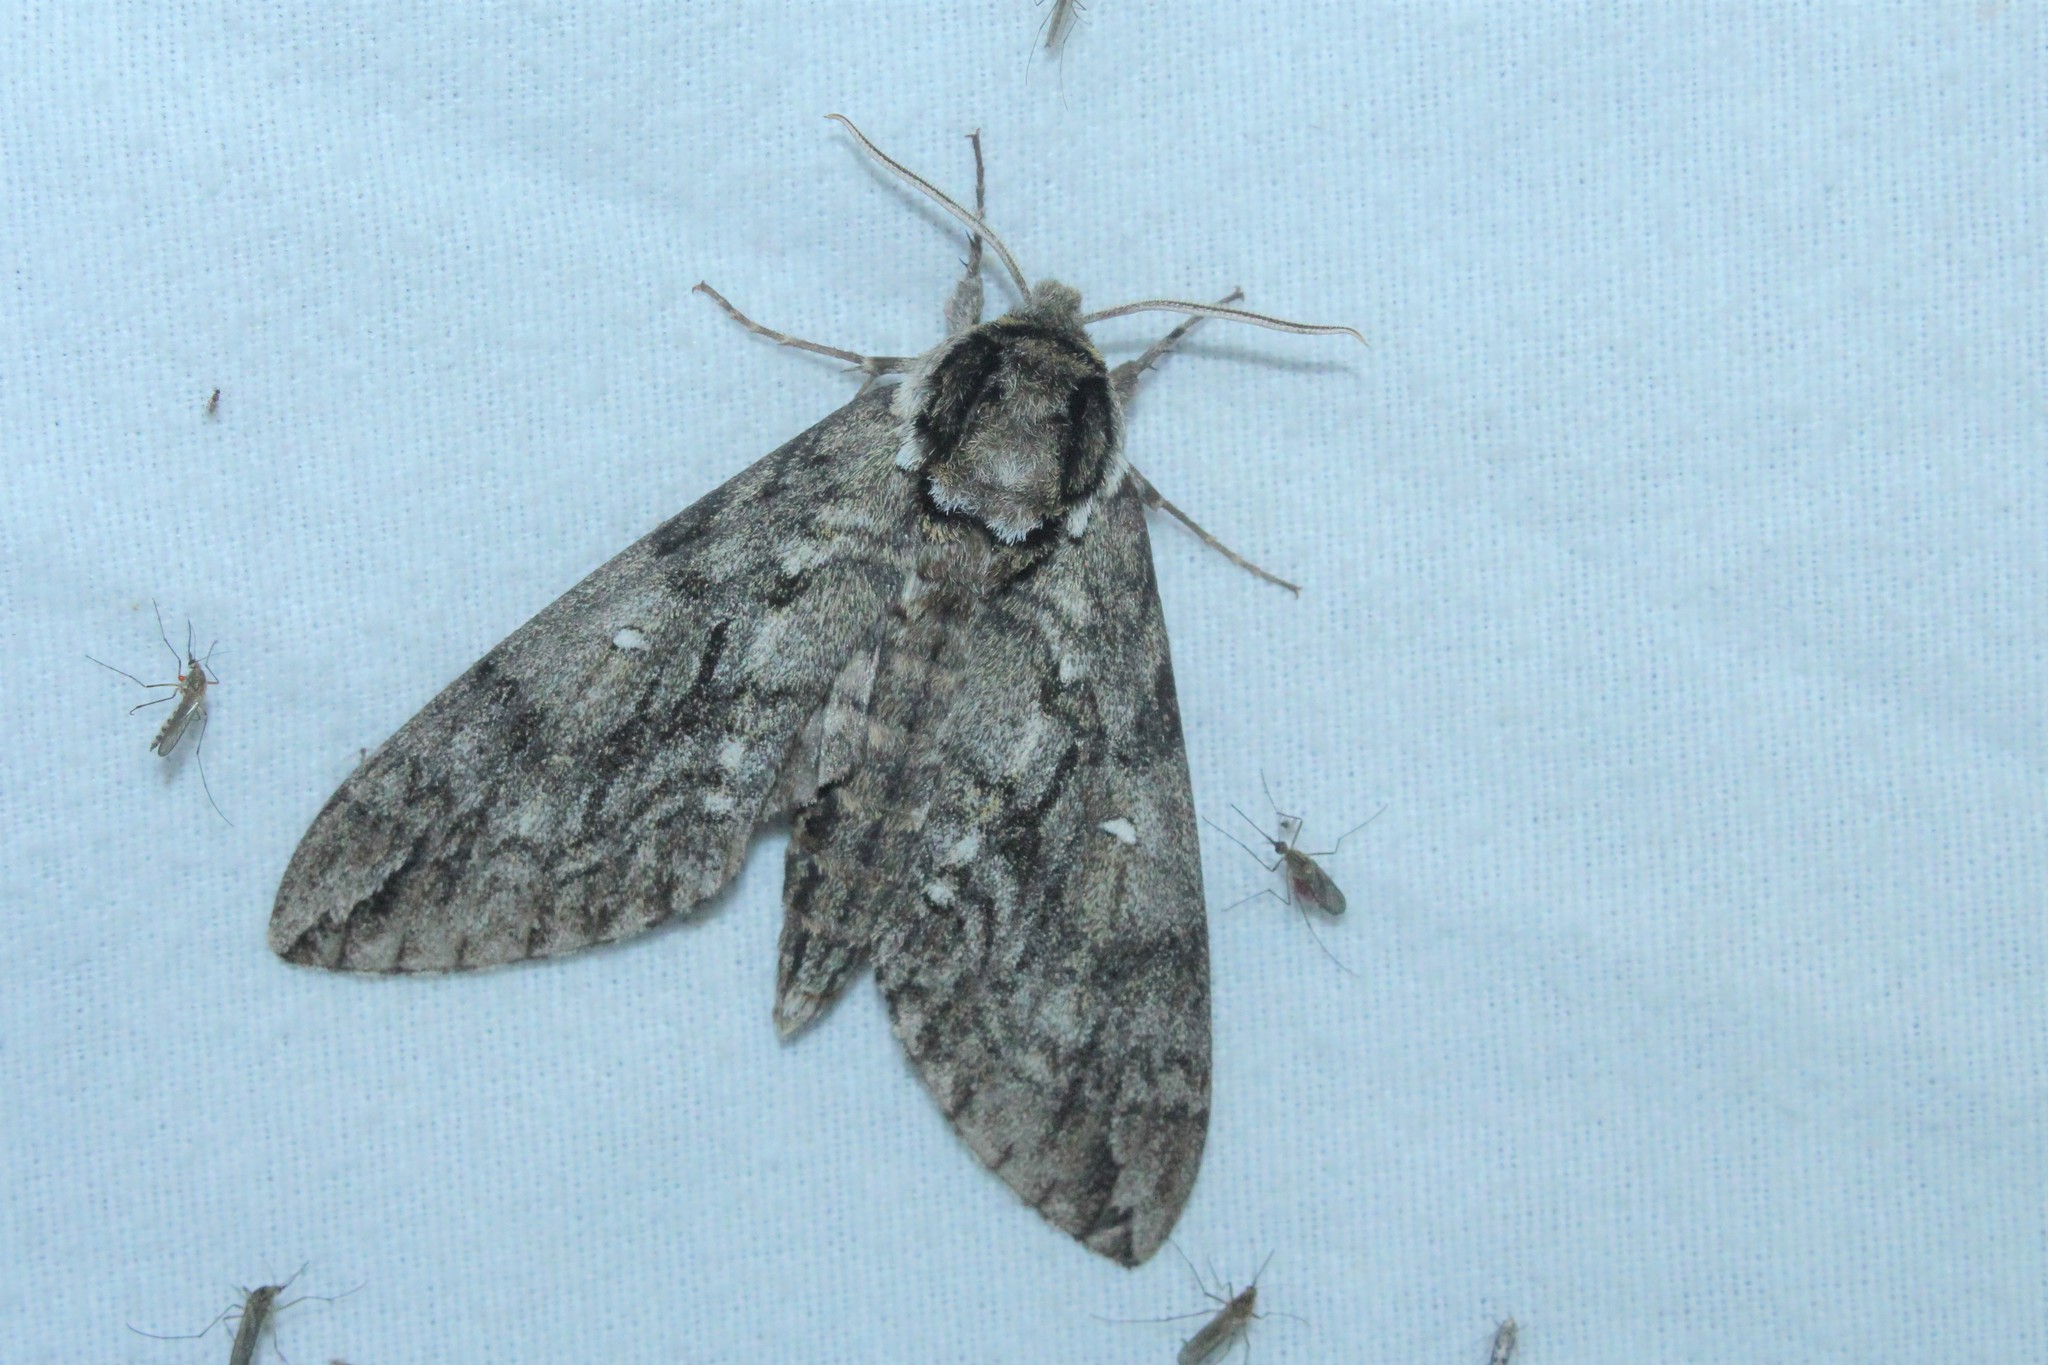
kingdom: Animalia
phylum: Arthropoda
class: Insecta
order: Lepidoptera
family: Sphingidae
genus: Ceratomia
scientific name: Ceratomia undulosa
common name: Waved sphinx
